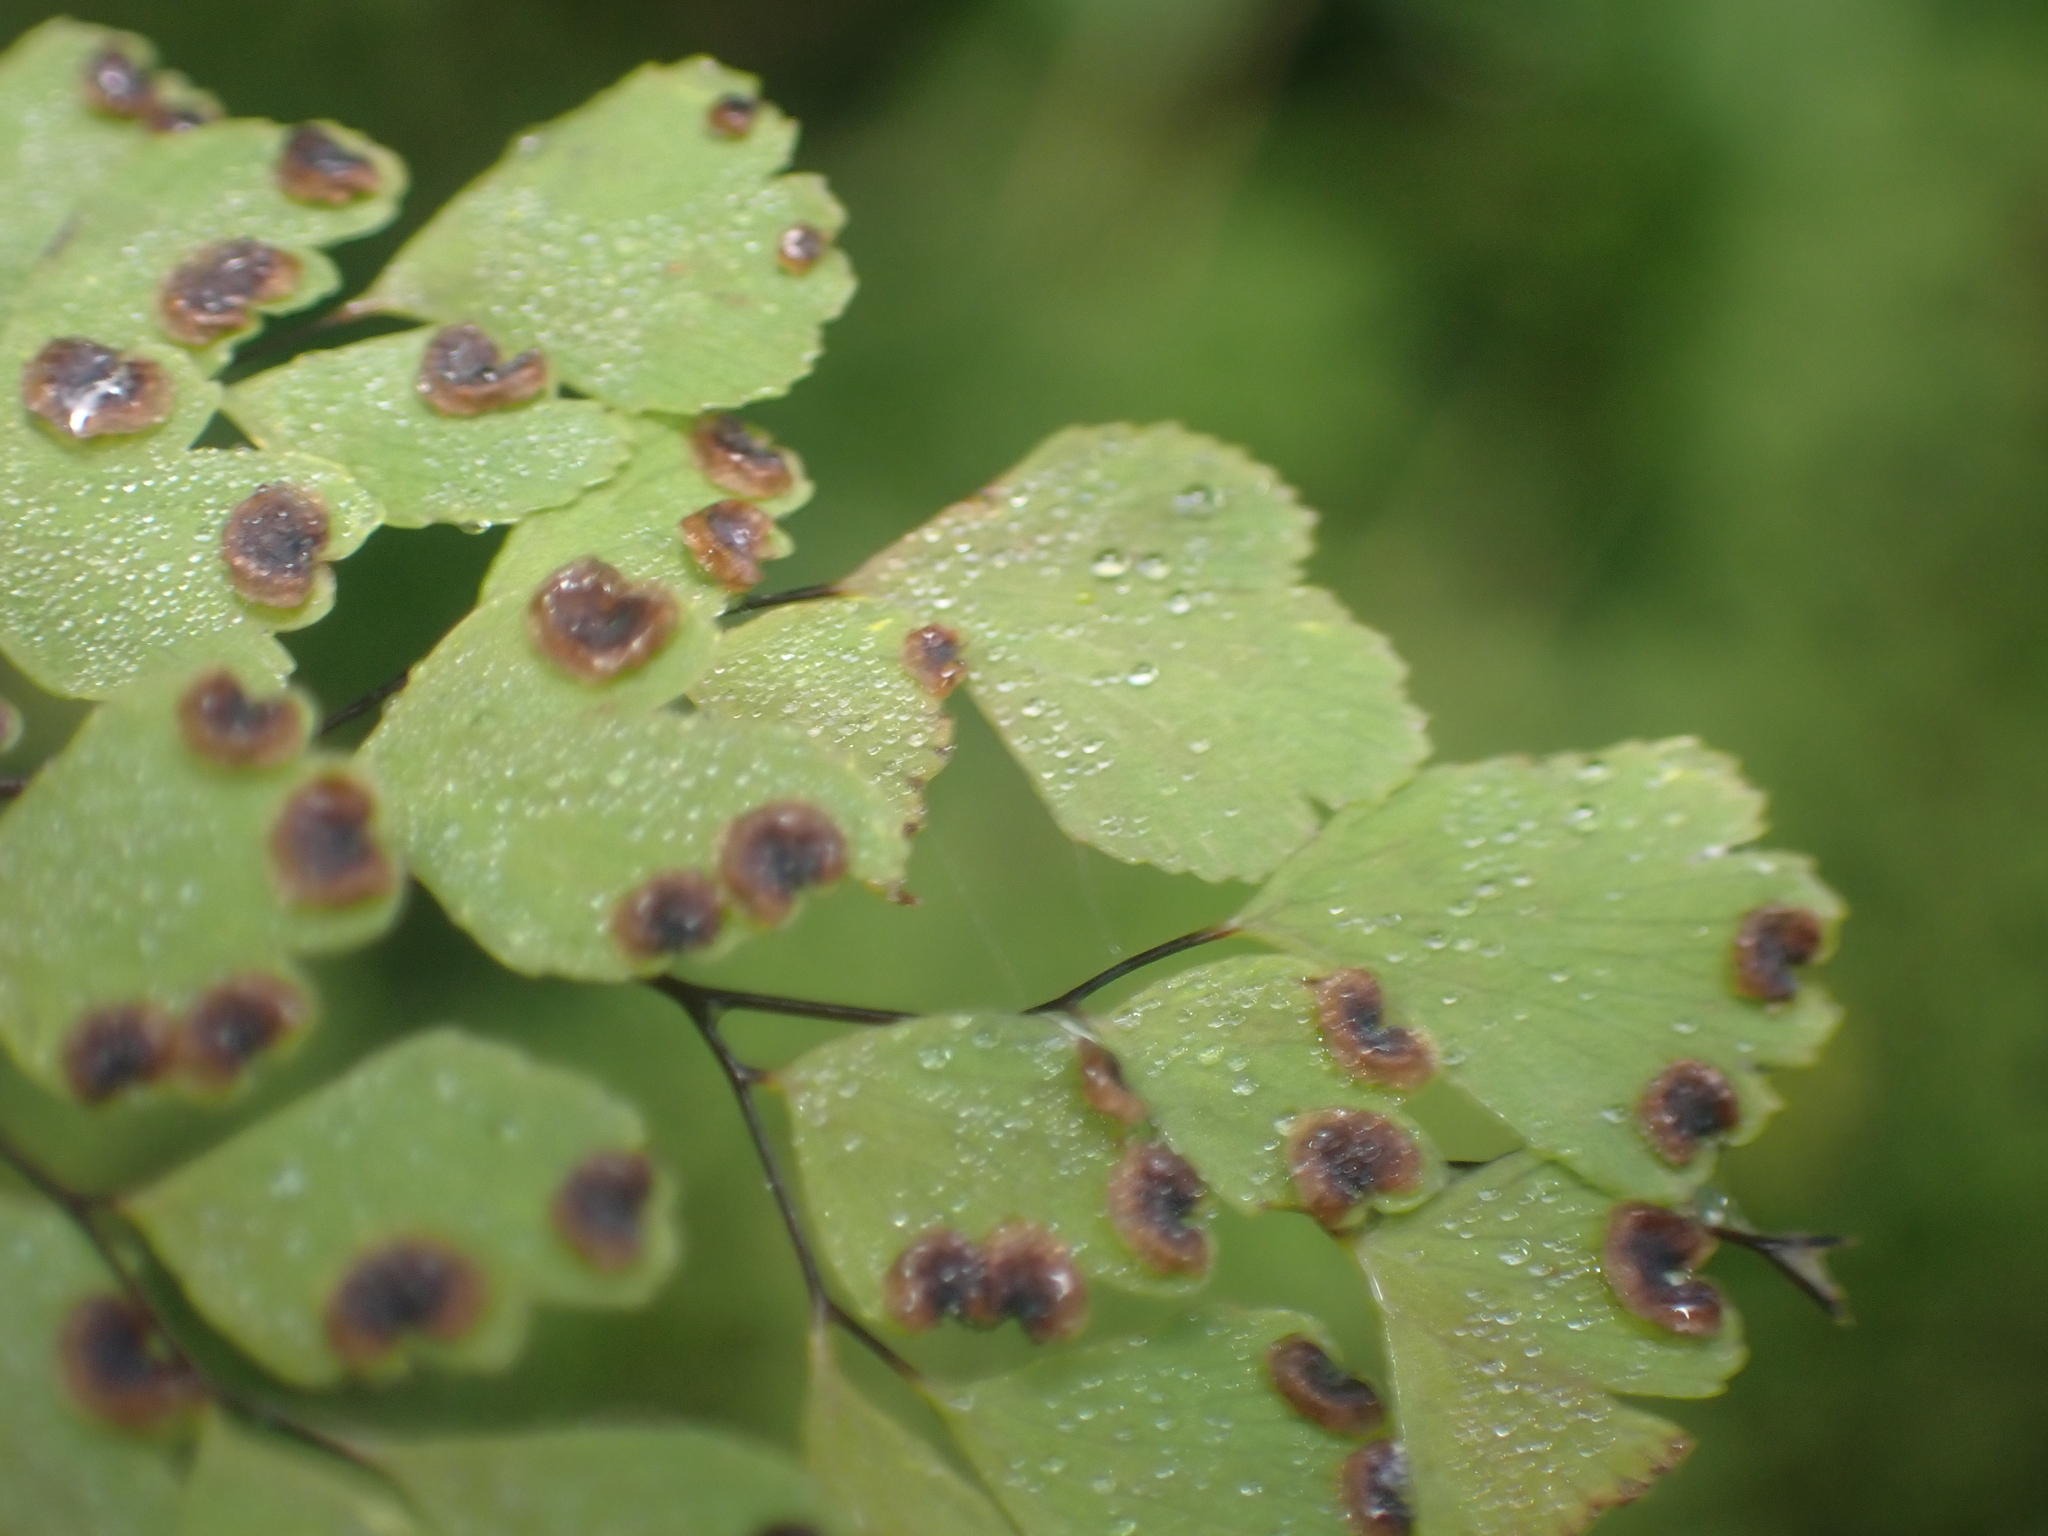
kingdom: Plantae
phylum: Tracheophyta
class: Polypodiopsida
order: Polypodiales
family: Pteridaceae
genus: Adiantum
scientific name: Adiantum raddianum
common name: Delta maidenhair fern
